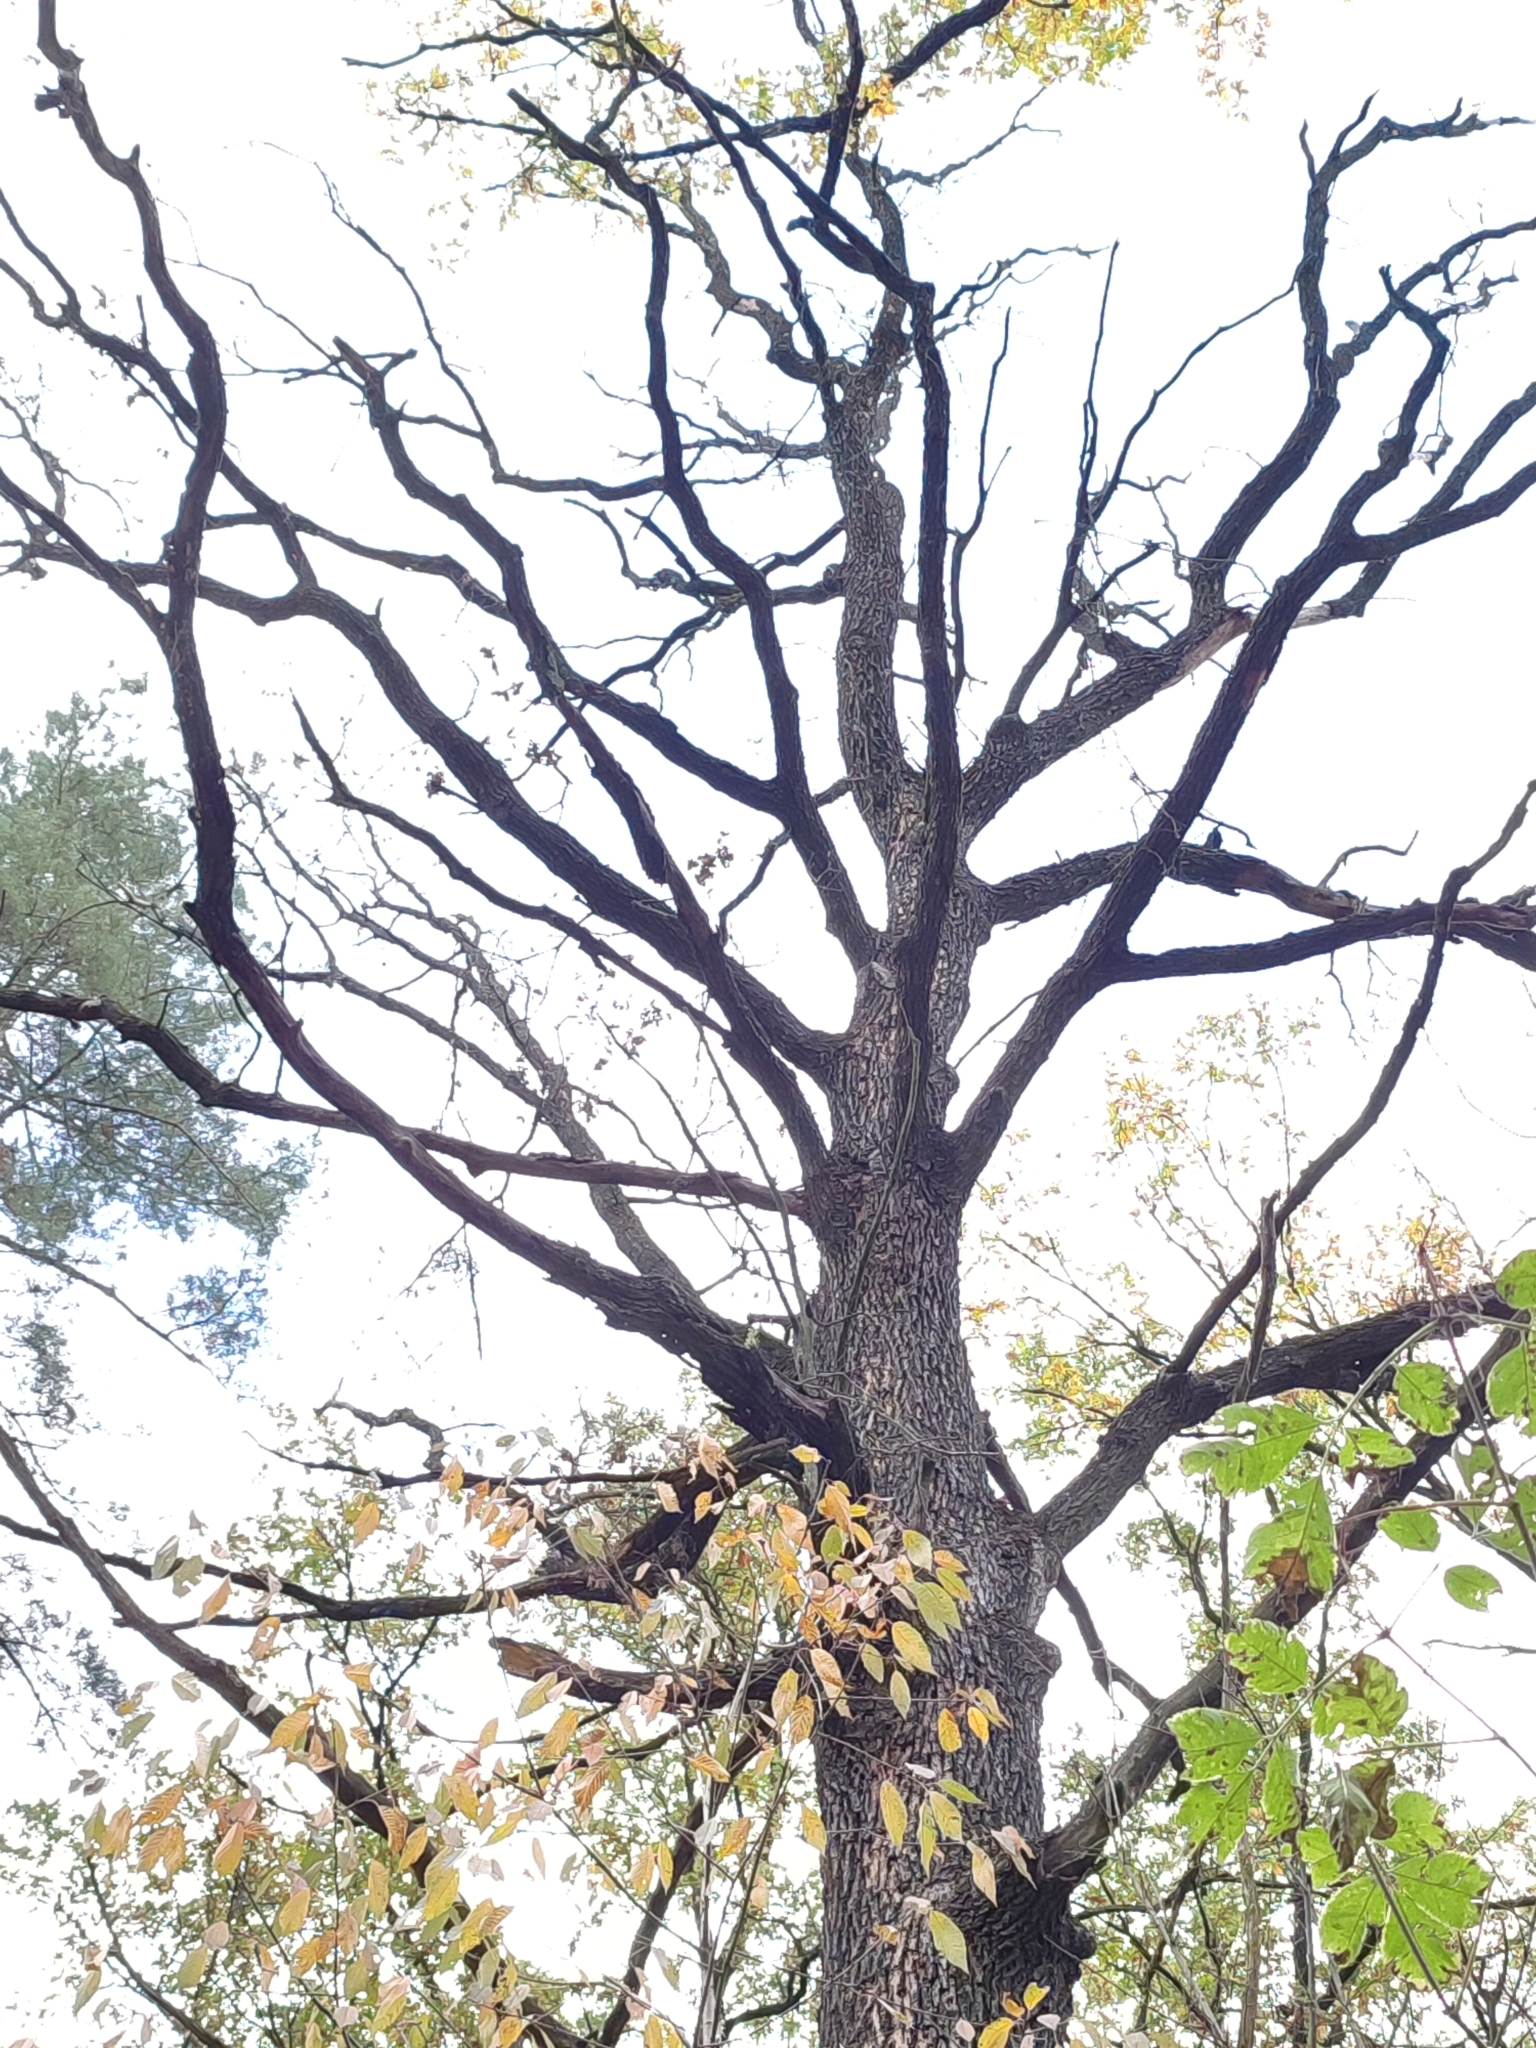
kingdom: Plantae
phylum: Tracheophyta
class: Magnoliopsida
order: Fagales
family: Fagaceae
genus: Quercus
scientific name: Quercus robur
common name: Pedunculate oak
